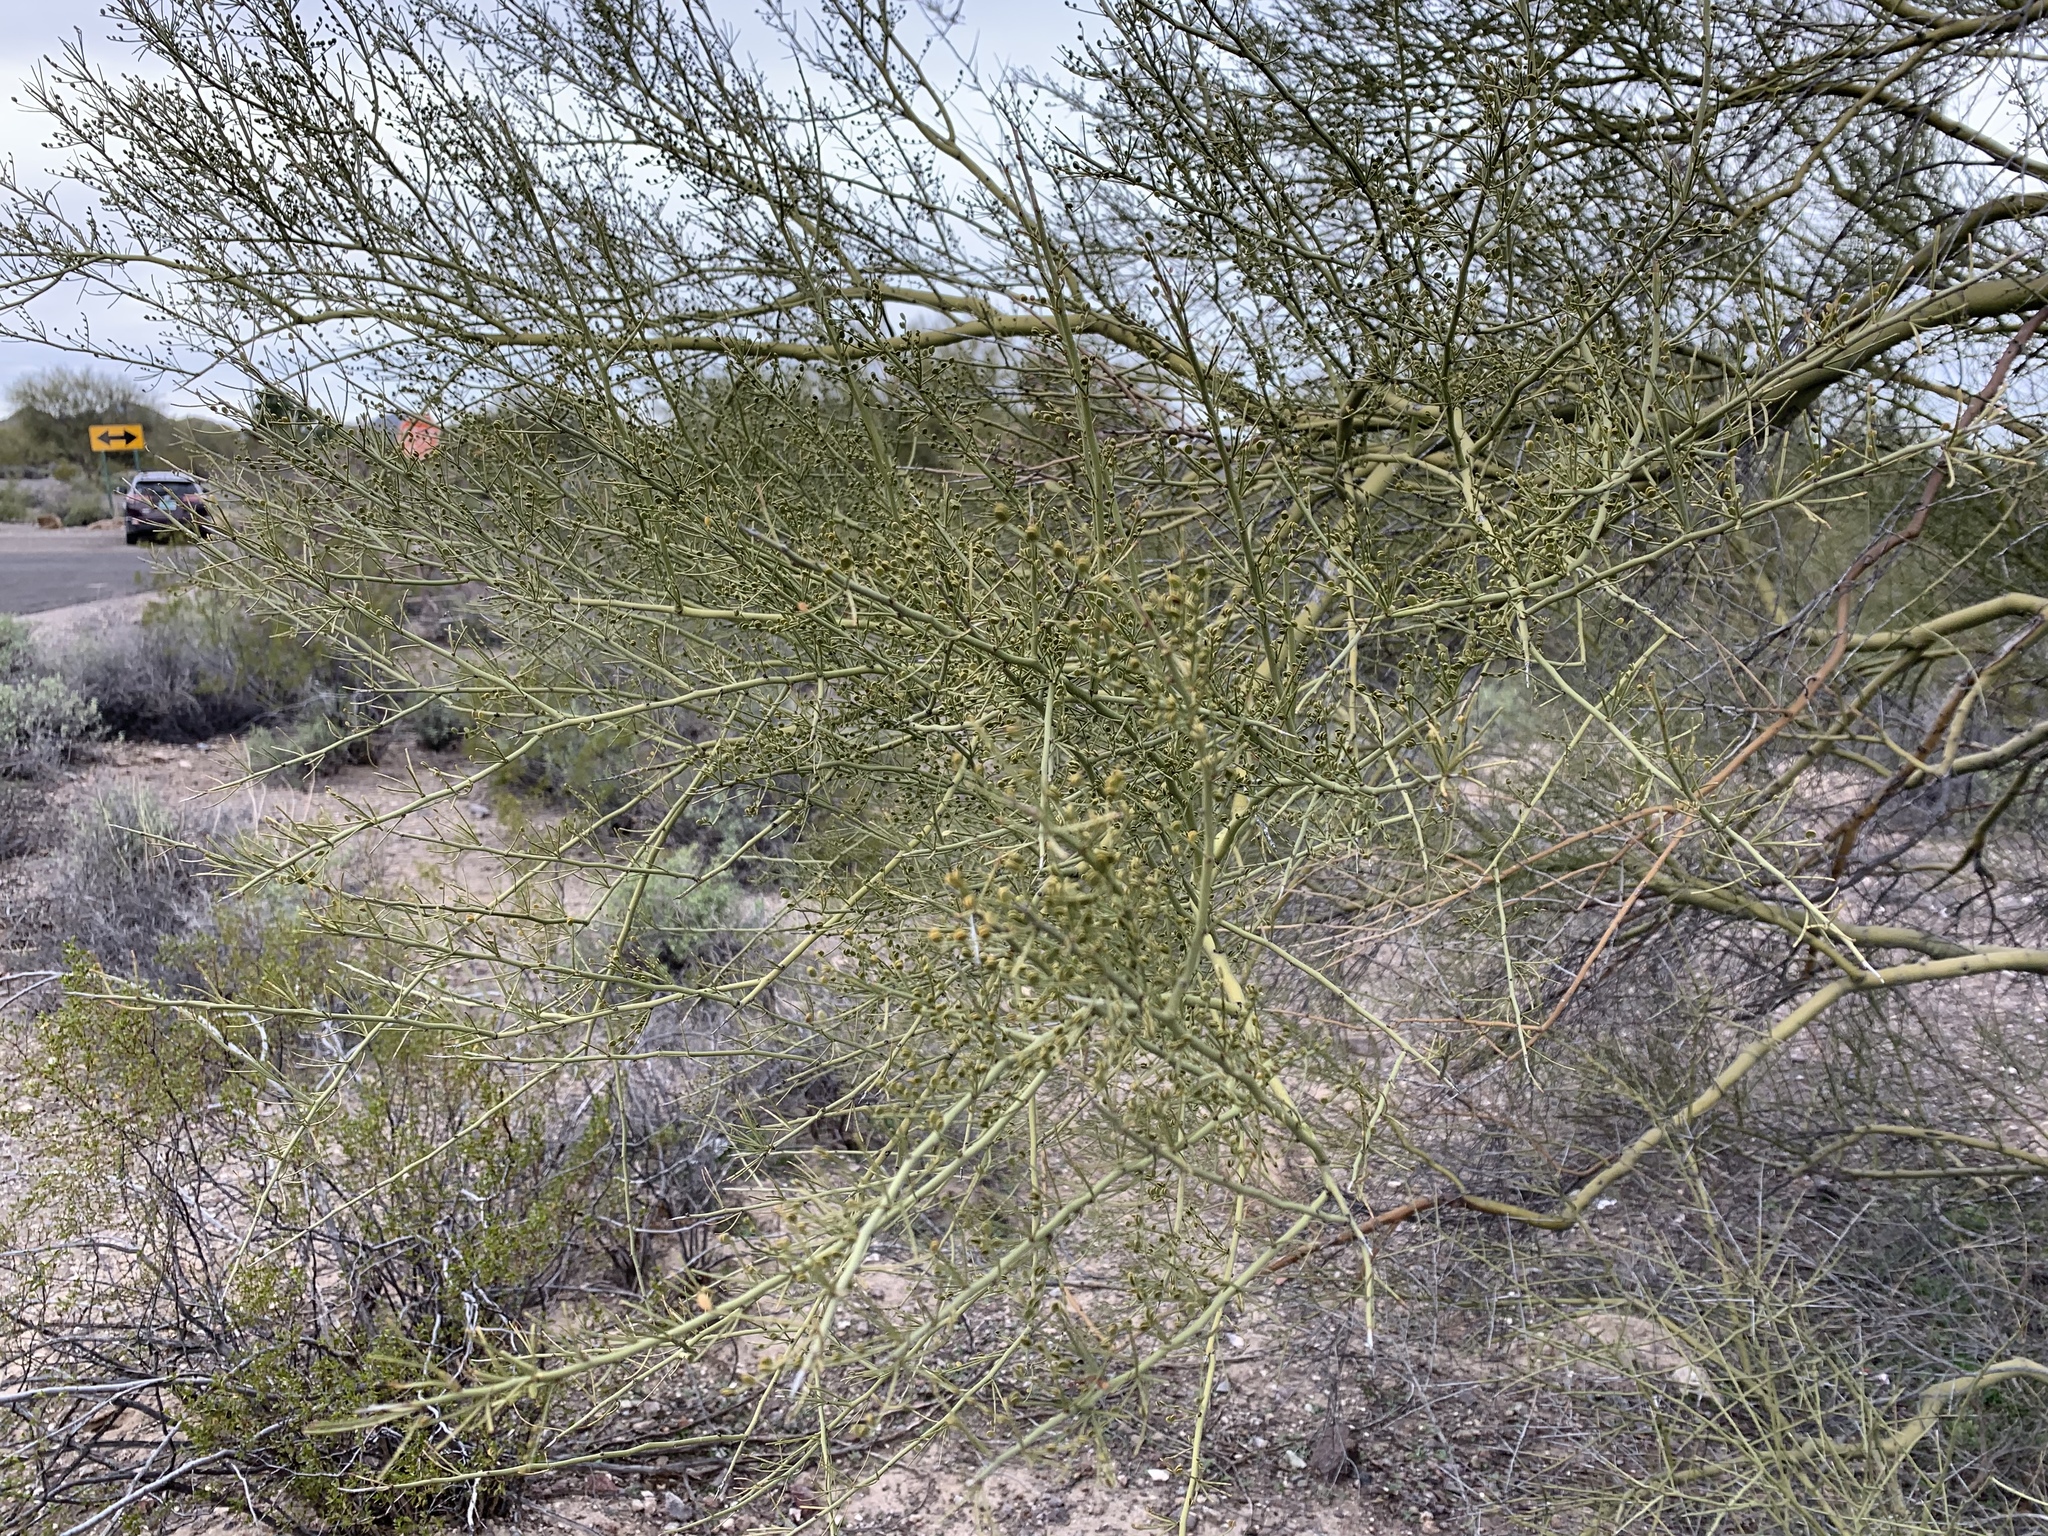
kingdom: Plantae
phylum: Tracheophyta
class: Magnoliopsida
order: Fabales
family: Fabaceae
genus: Parkinsonia
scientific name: Parkinsonia microphylla
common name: Yellow paloverde
